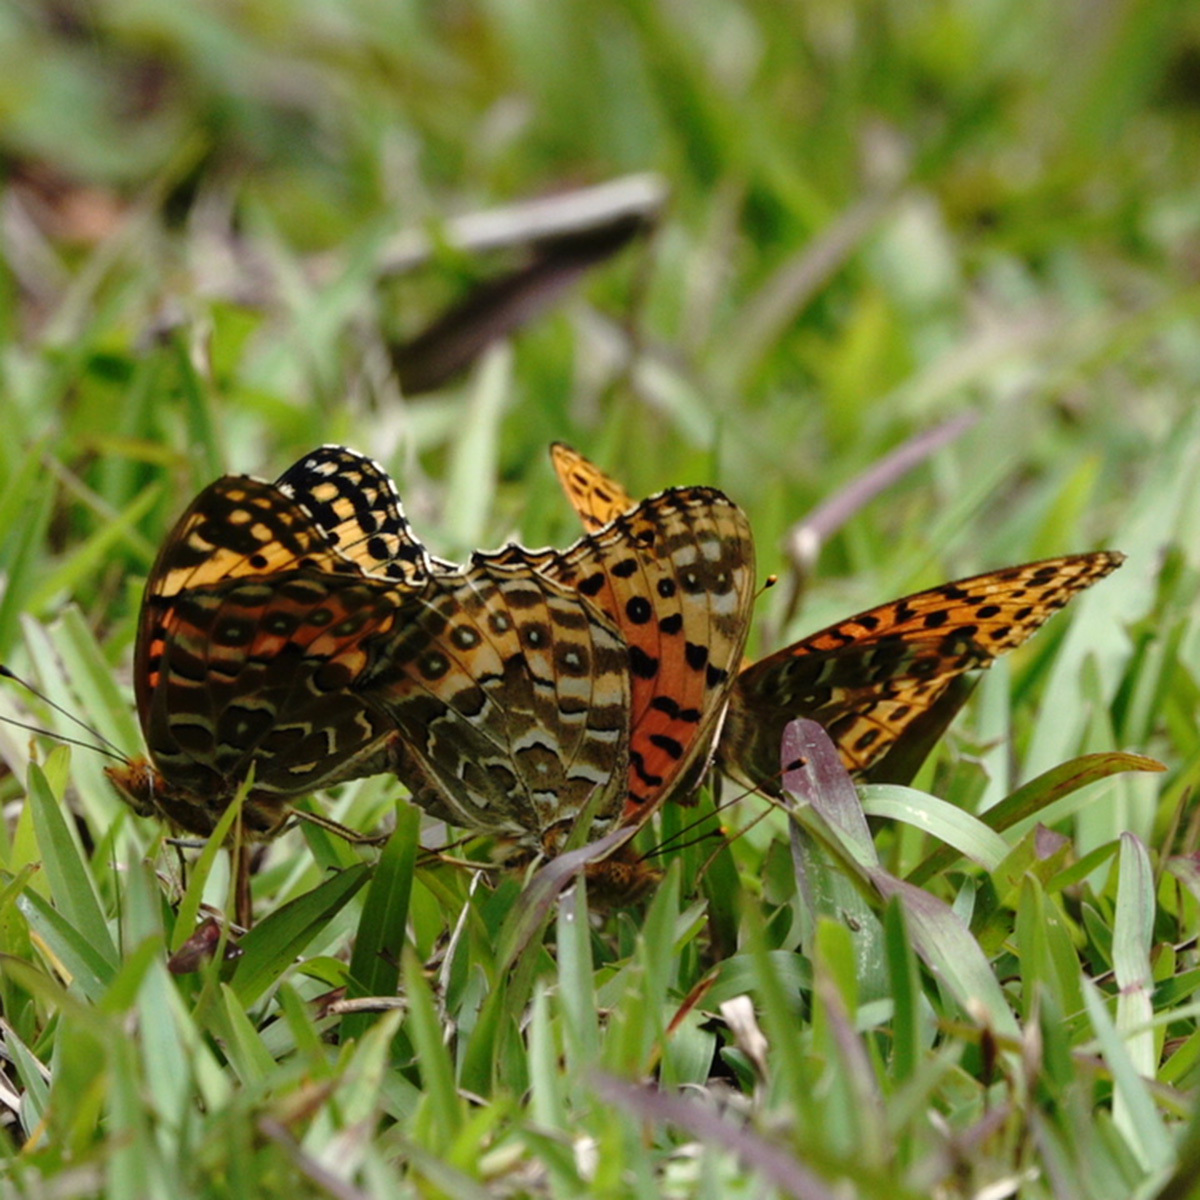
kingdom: Animalia
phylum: Arthropoda
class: Insecta
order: Lepidoptera
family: Nymphalidae
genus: Argyreus
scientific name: Argyreus hyperbius
